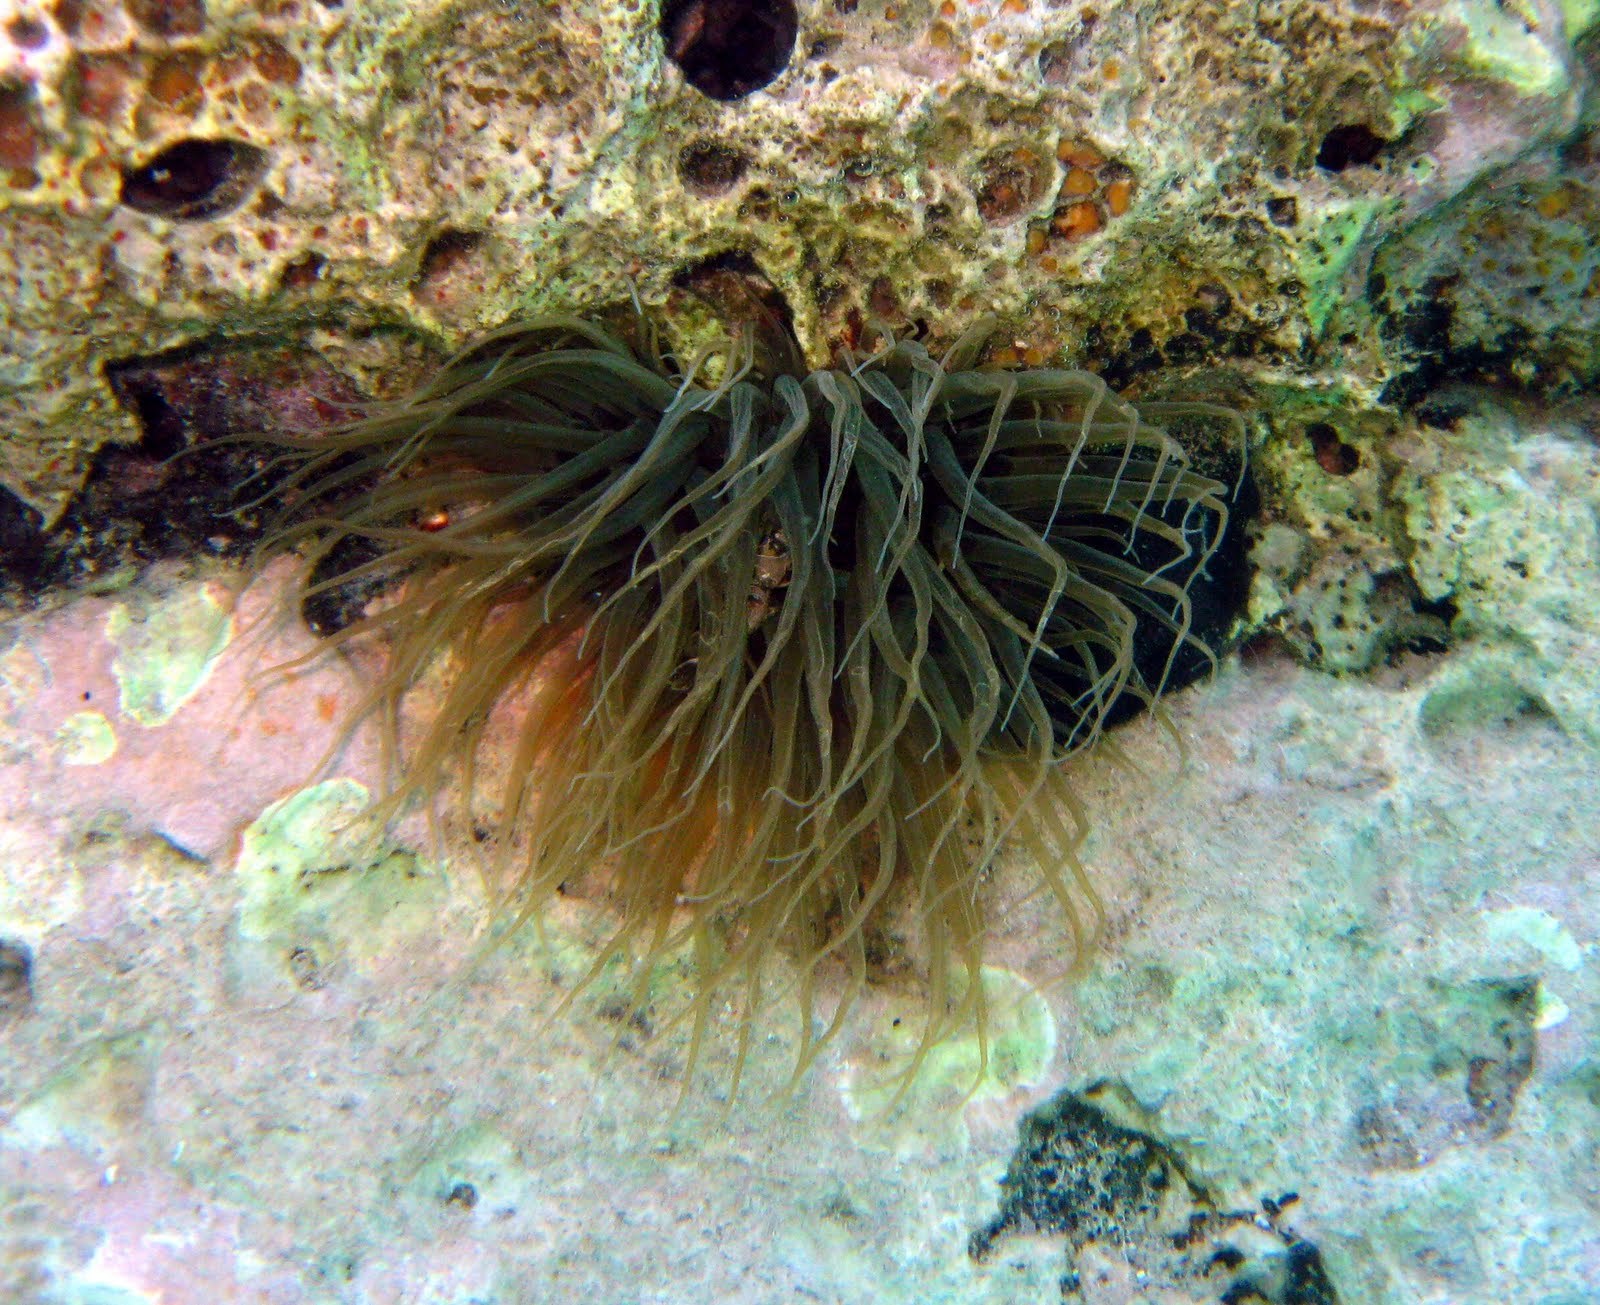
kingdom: Animalia
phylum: Cnidaria
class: Anthozoa
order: Actiniaria
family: Aiptasiidae
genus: Aiptasia
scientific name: Aiptasia mutabilis
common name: Trumpet anemone
